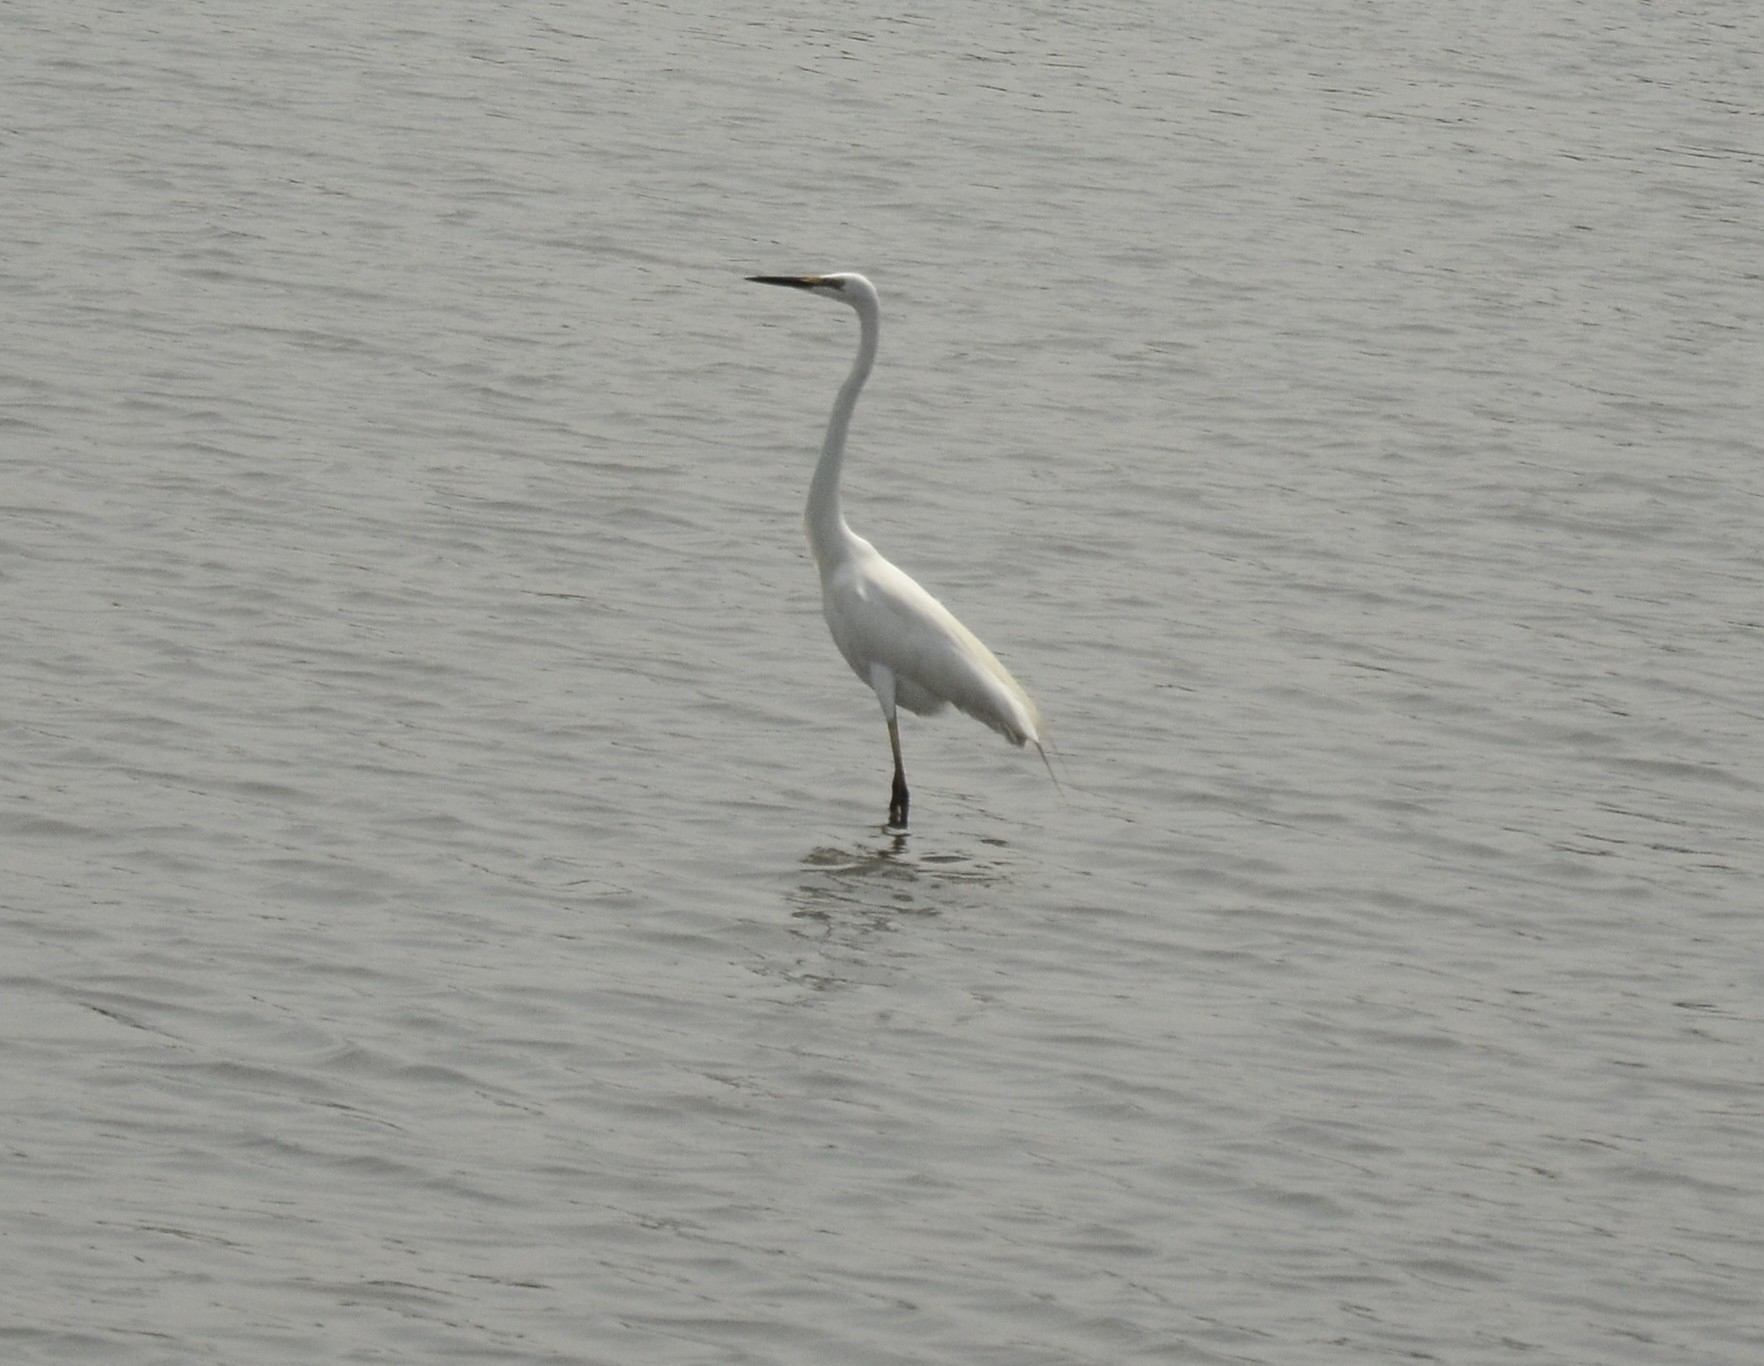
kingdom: Animalia
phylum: Chordata
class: Aves
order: Pelecaniformes
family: Ardeidae
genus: Ardea
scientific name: Ardea alba
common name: Great egret
